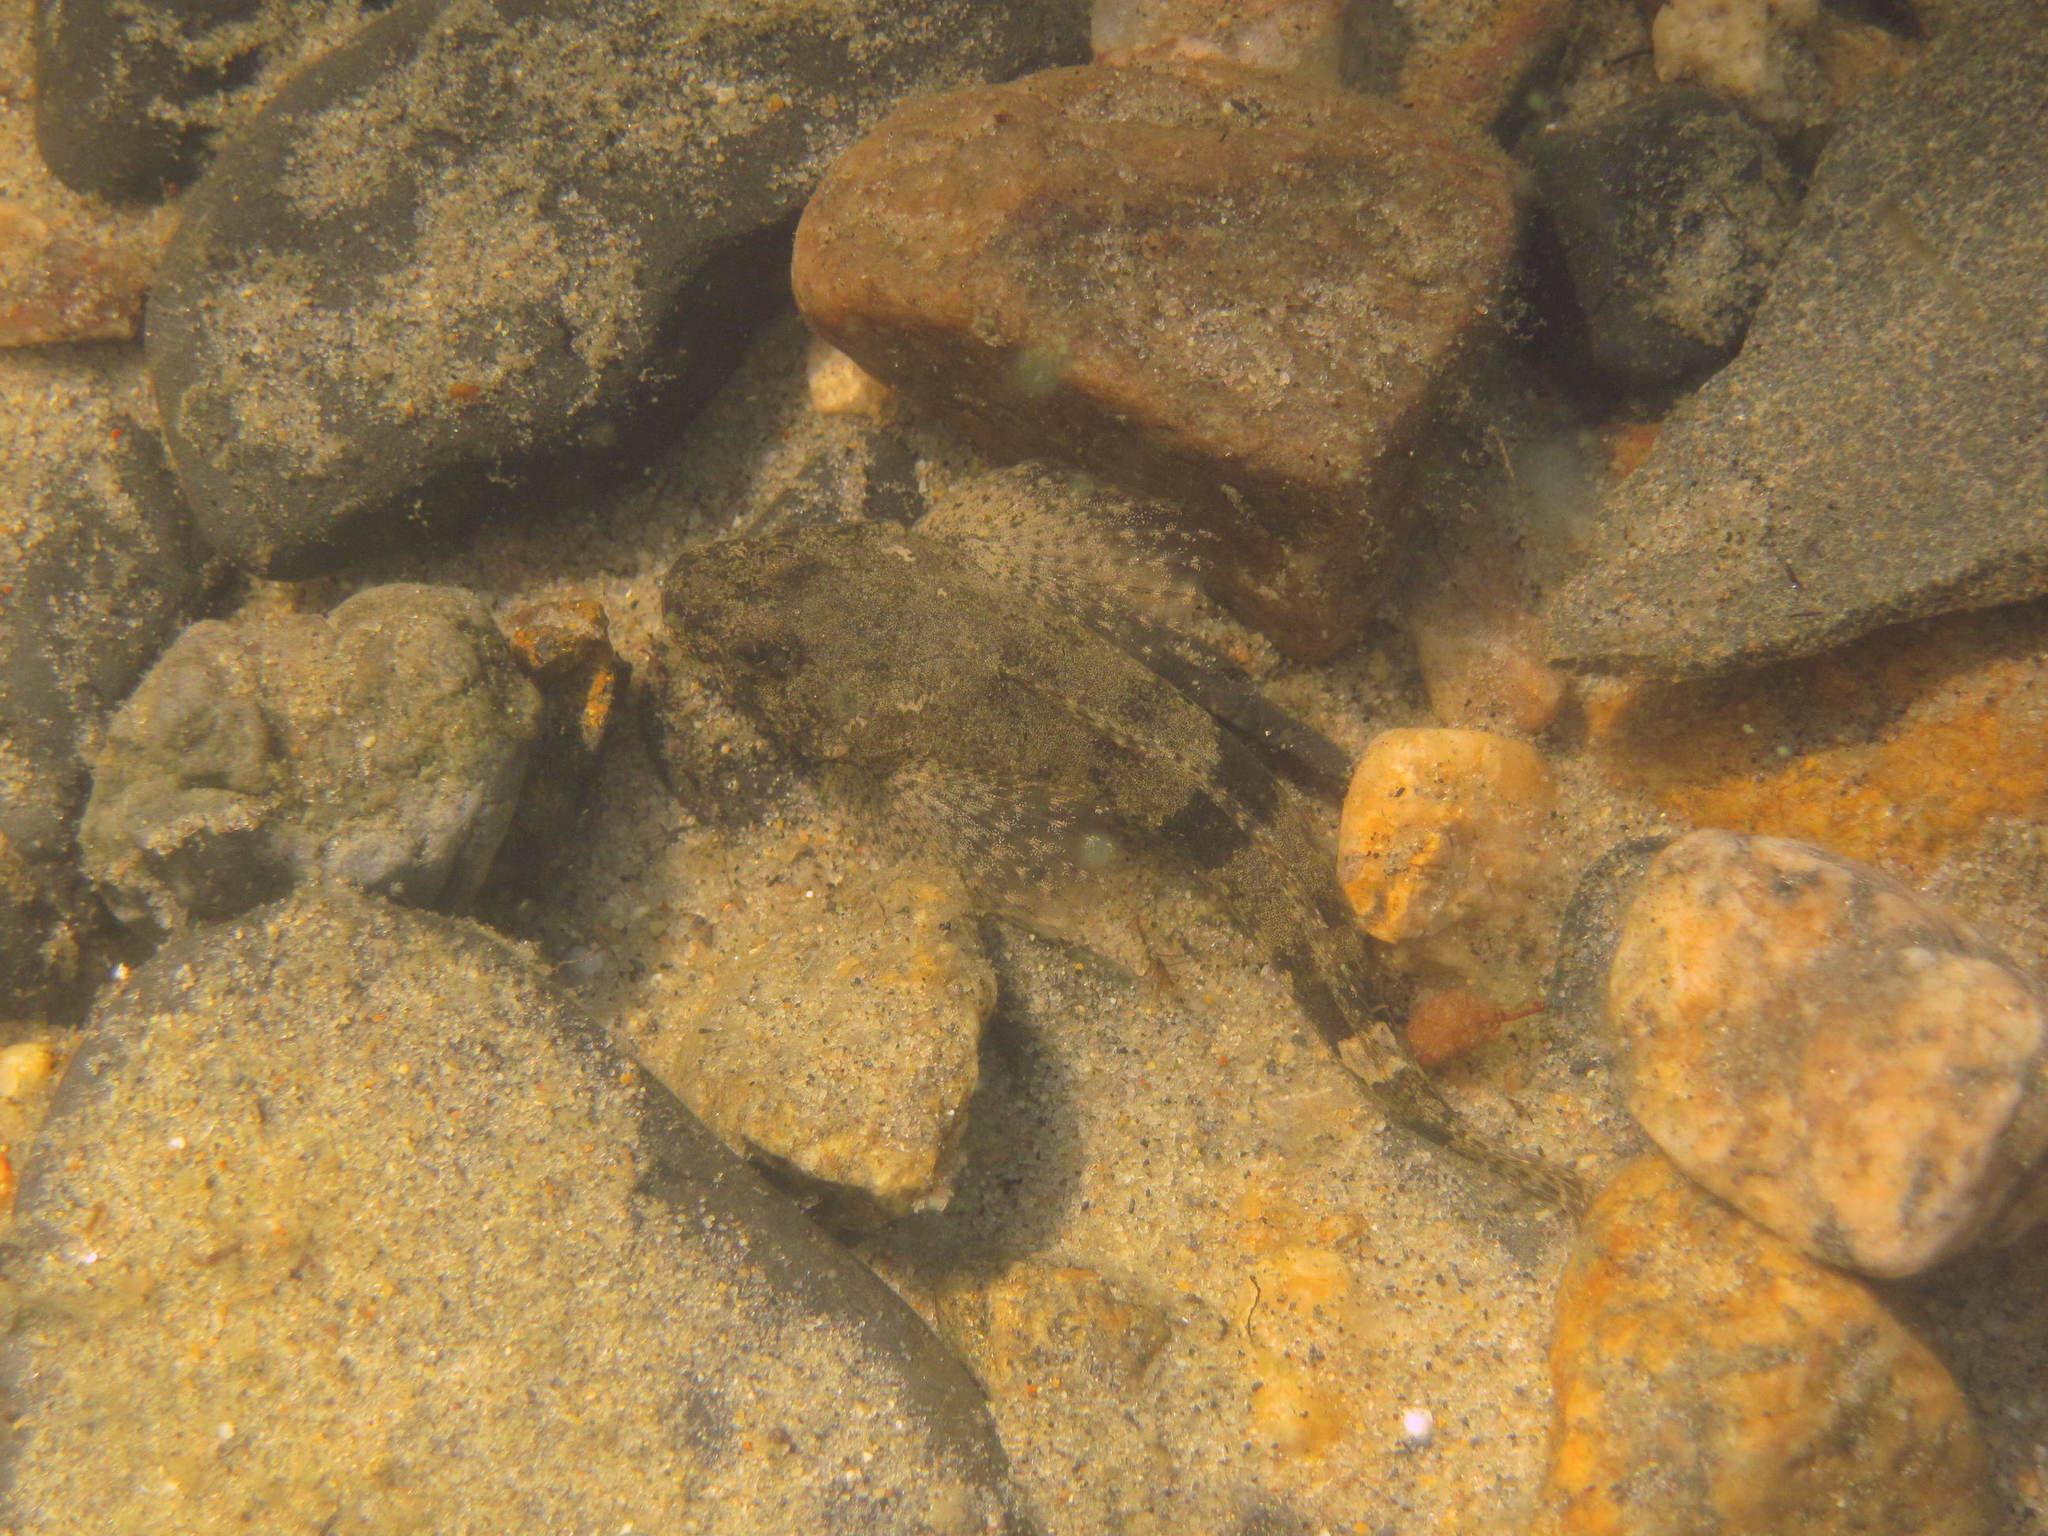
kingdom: Animalia
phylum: Chordata
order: Scorpaeniformes
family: Cottidae
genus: Cottus
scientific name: Cottus koshewnikowi
